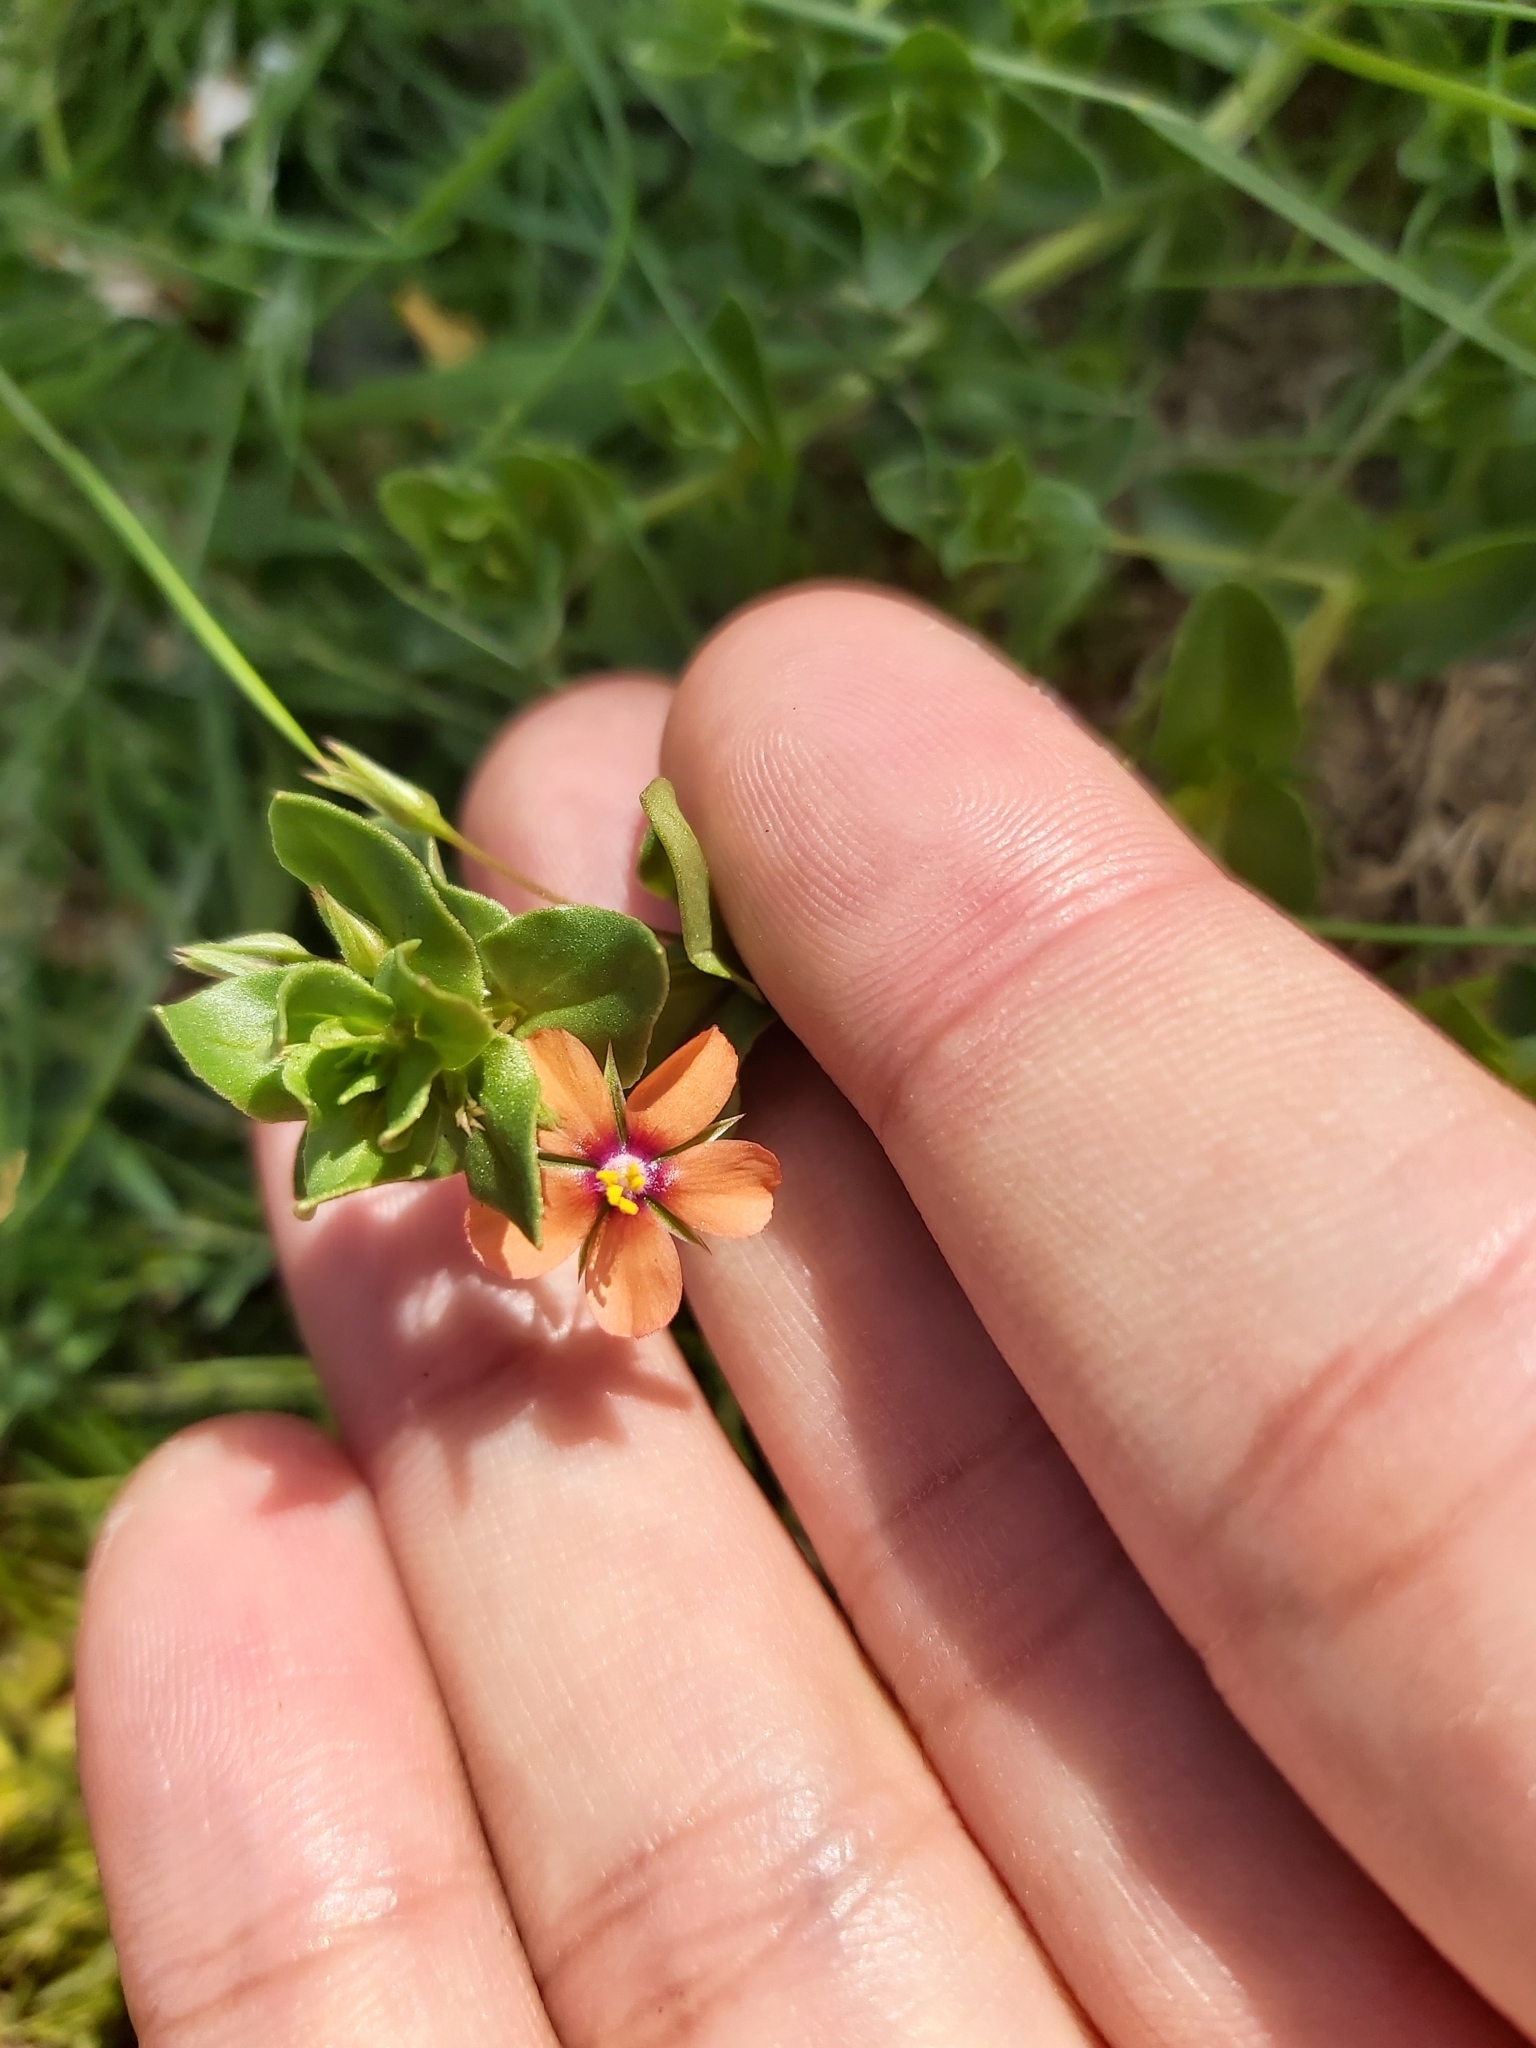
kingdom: Plantae
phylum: Tracheophyta
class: Magnoliopsida
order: Ericales
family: Primulaceae
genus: Lysimachia
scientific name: Lysimachia arvensis
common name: Scarlet pimpernel
